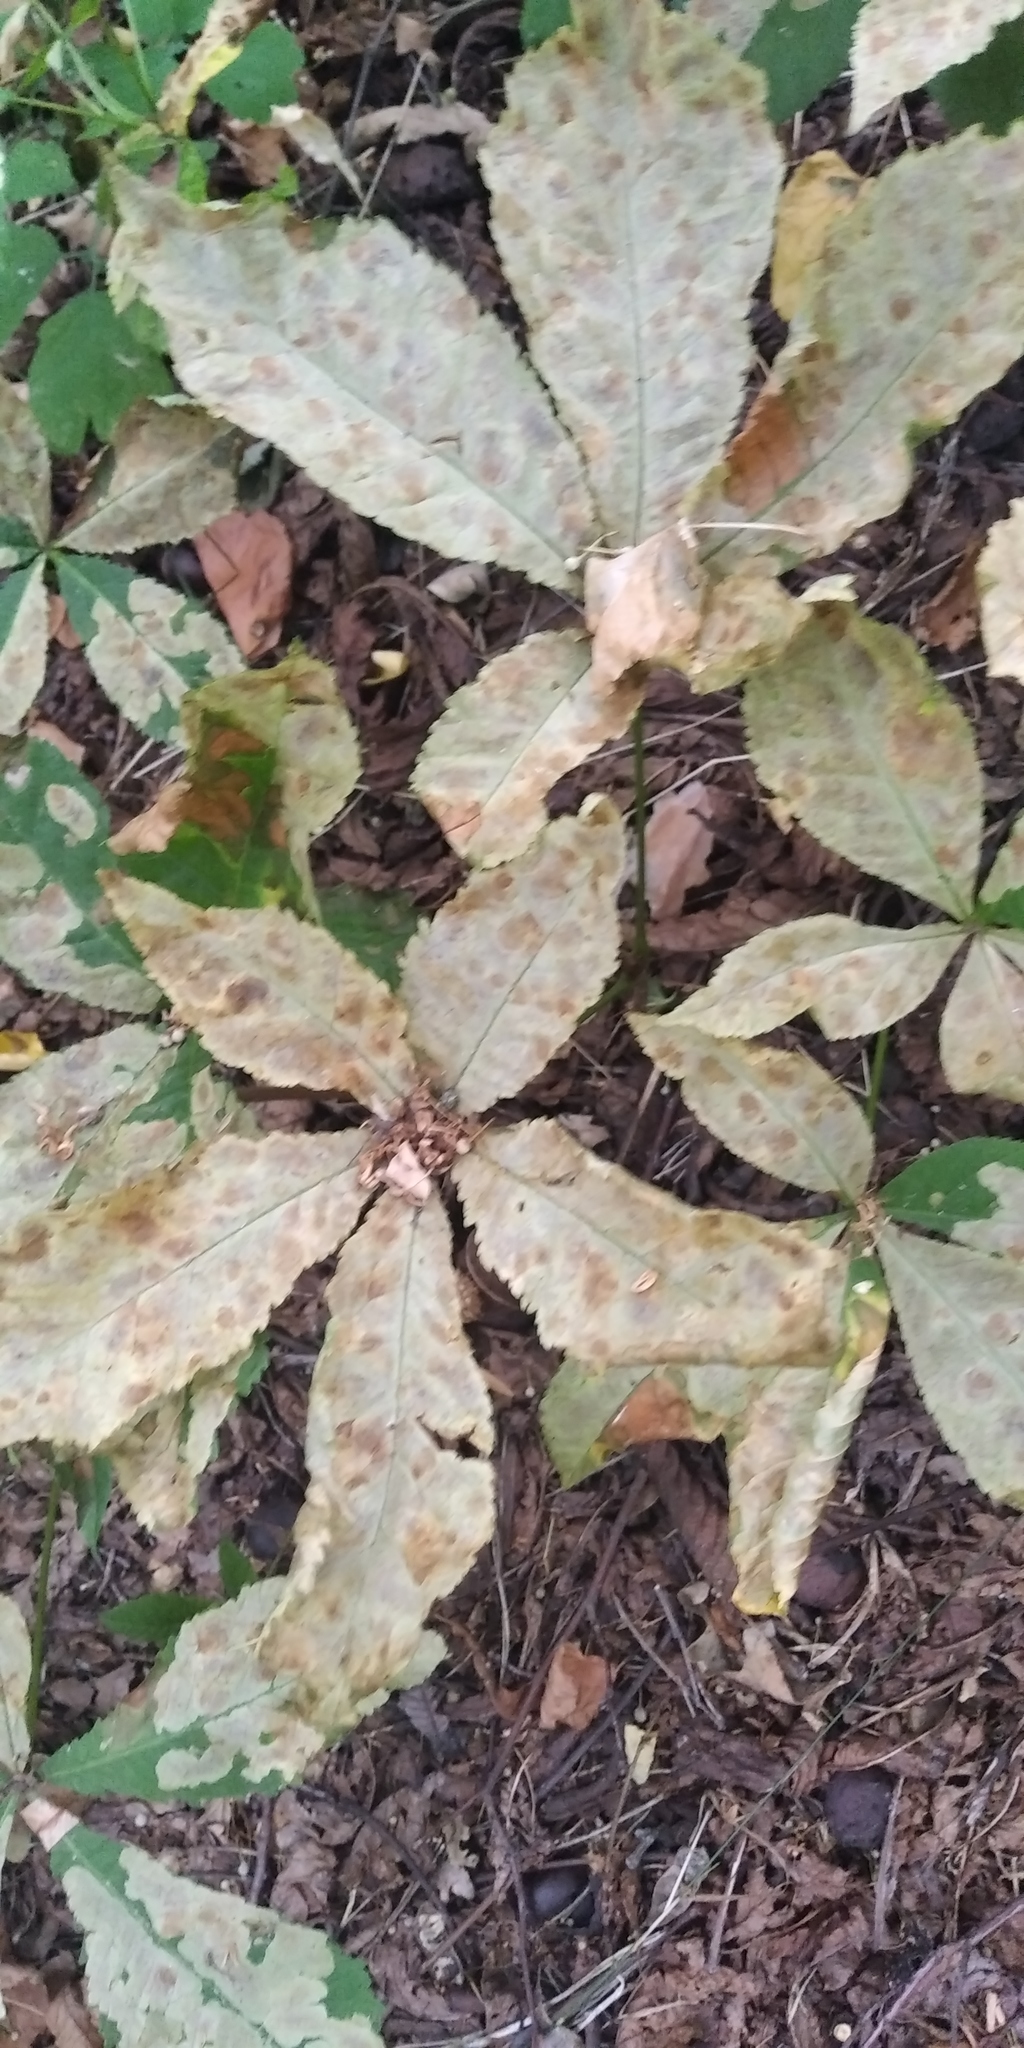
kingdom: Animalia
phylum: Arthropoda
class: Insecta
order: Lepidoptera
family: Gracillariidae
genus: Cameraria
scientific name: Cameraria ohridella
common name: Horse-chestnut leaf-miner
